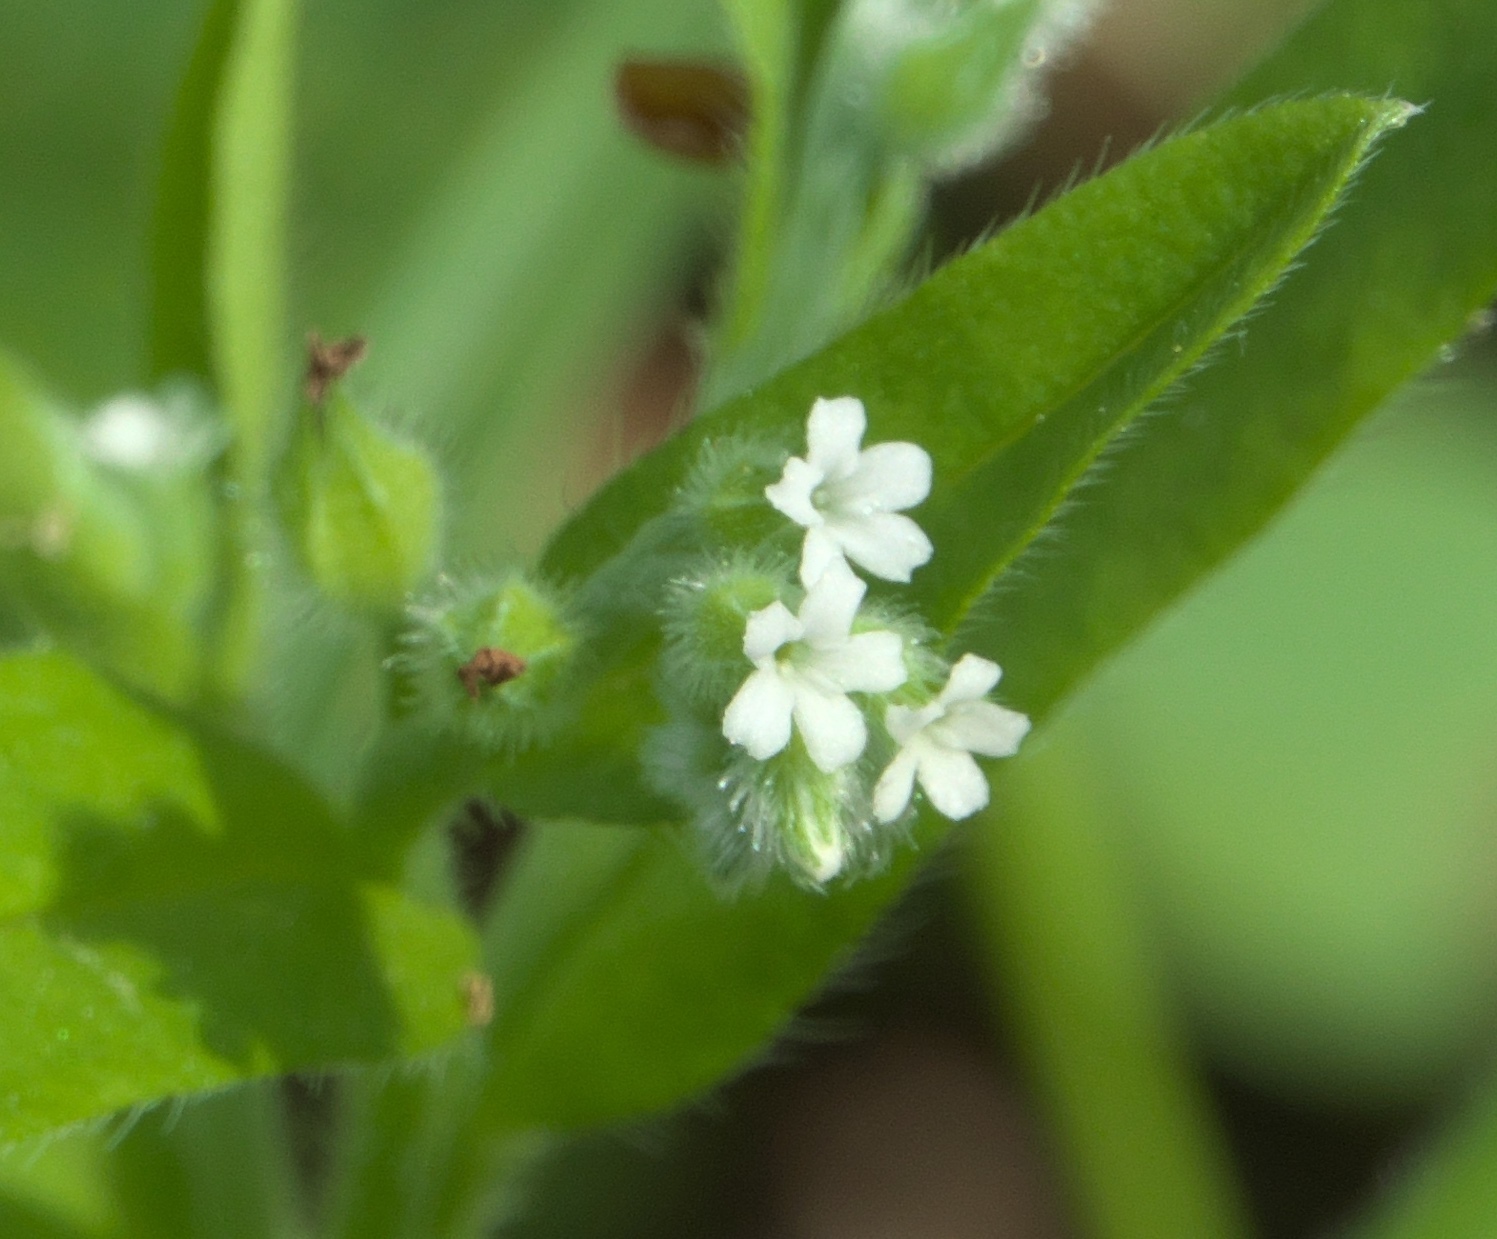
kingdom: Plantae
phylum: Tracheophyta
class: Magnoliopsida
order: Boraginales
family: Boraginaceae
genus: Myosotis
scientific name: Myosotis macrosperma
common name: Large-seed forget-me-not
